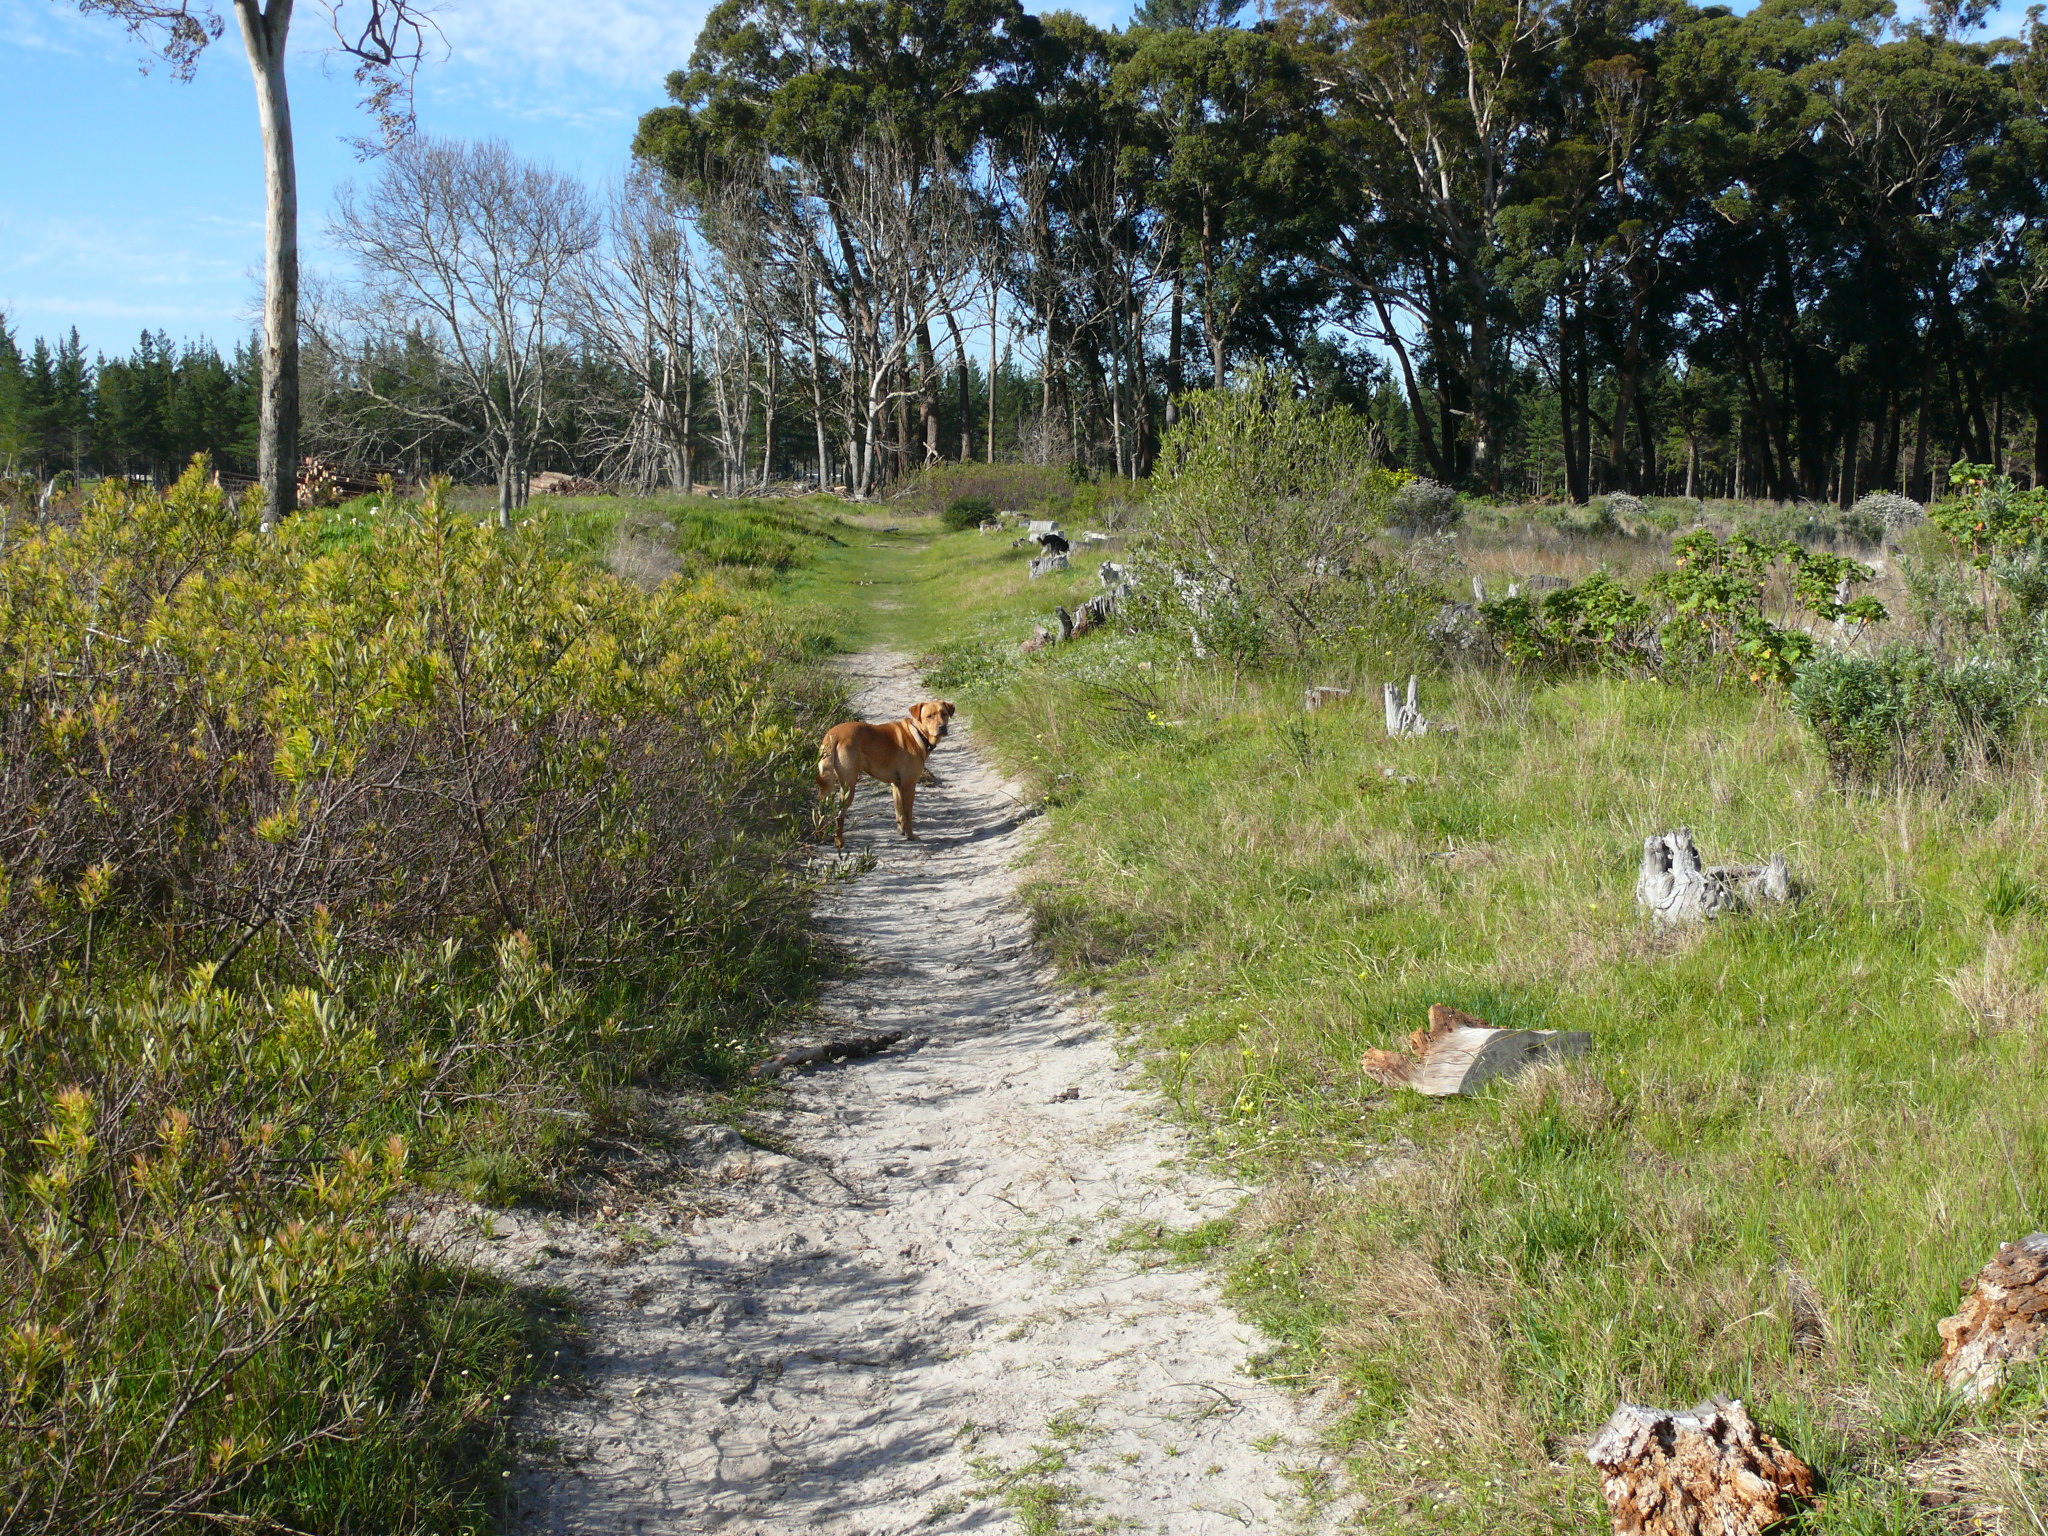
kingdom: Plantae
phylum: Tracheophyta
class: Magnoliopsida
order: Sapindales
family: Anacardiaceae
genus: Searsia
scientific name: Searsia angustifolia
